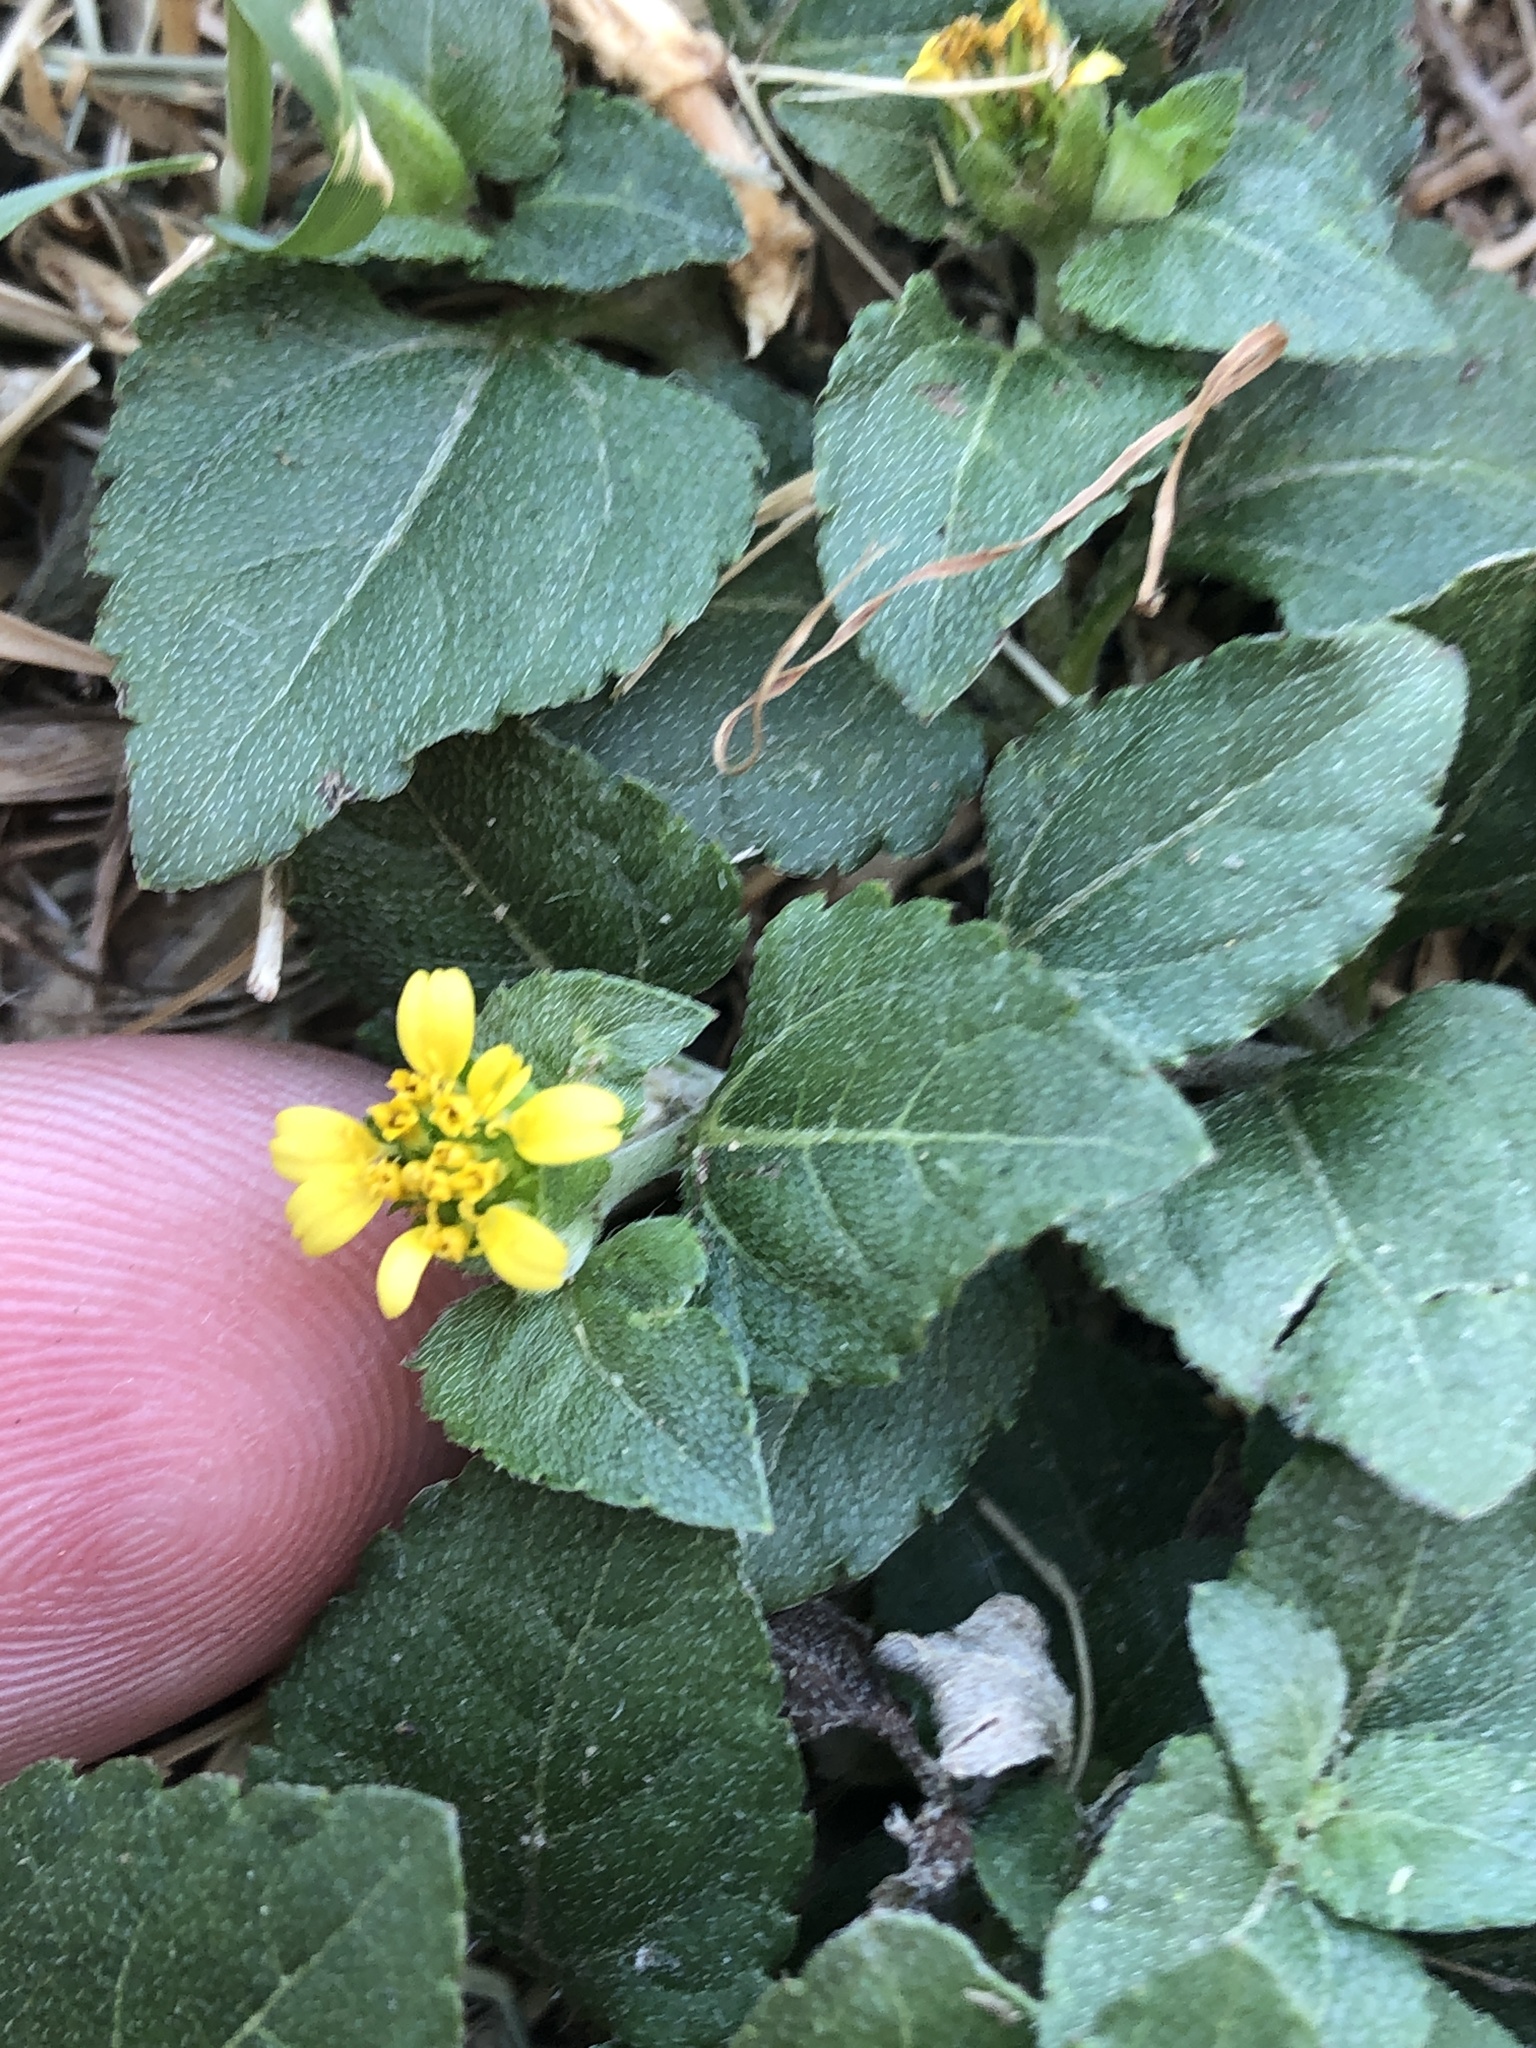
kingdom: Plantae
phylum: Tracheophyta
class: Magnoliopsida
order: Asterales
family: Asteraceae
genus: Calyptocarpus
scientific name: Calyptocarpus vialis
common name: Straggler daisy
